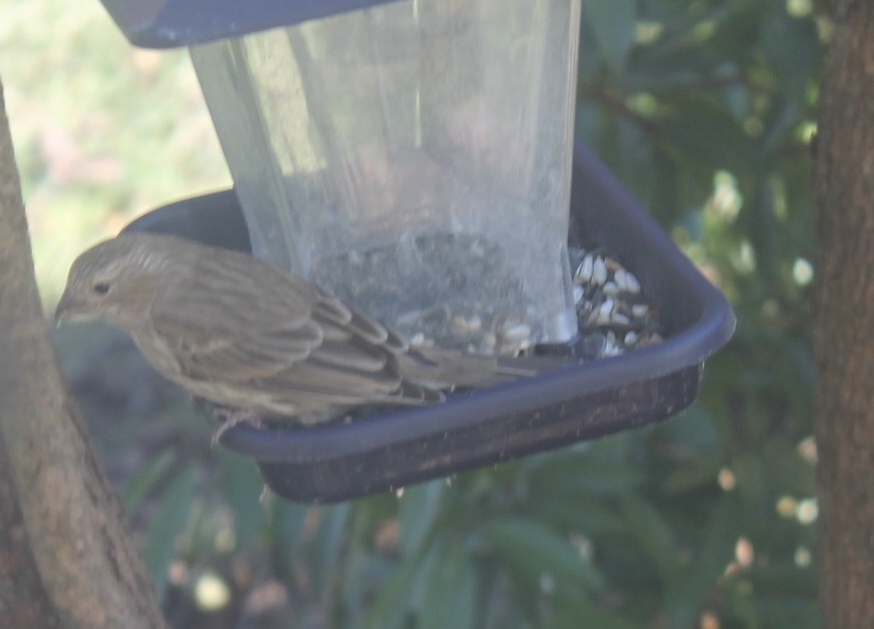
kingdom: Animalia
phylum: Chordata
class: Aves
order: Passeriformes
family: Fringillidae
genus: Haemorhous
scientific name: Haemorhous mexicanus
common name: House finch
